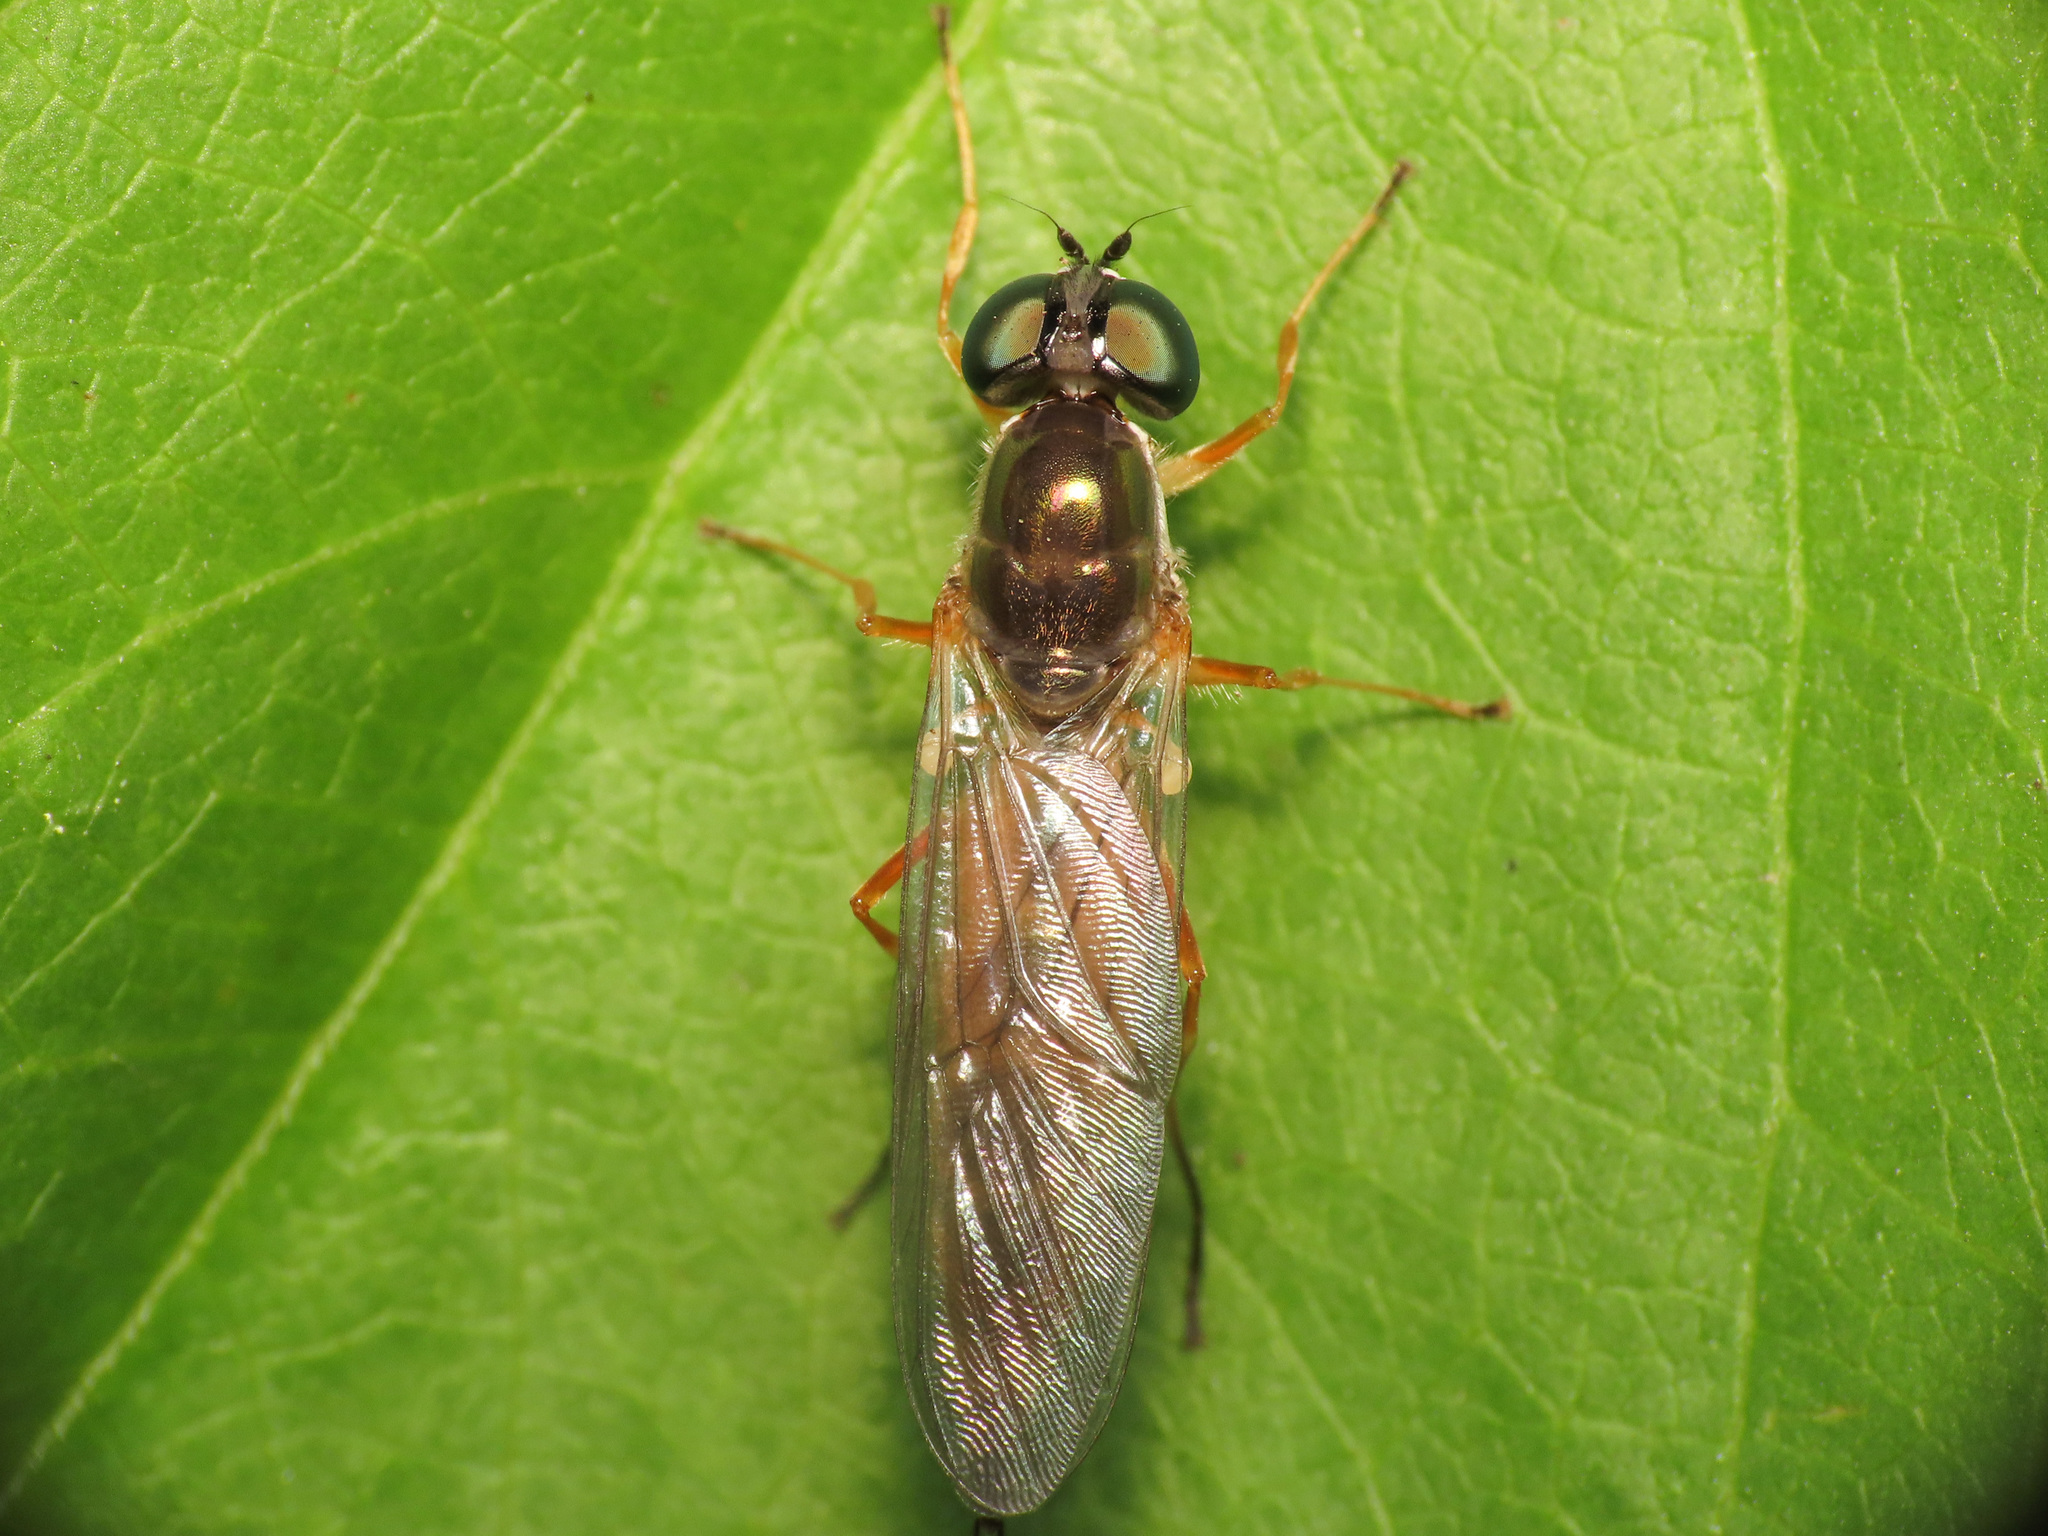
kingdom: Animalia
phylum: Arthropoda
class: Insecta
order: Diptera
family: Stratiomyidae
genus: Sargus
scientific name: Sargus bipunctatus
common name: Twin-spot centurion
